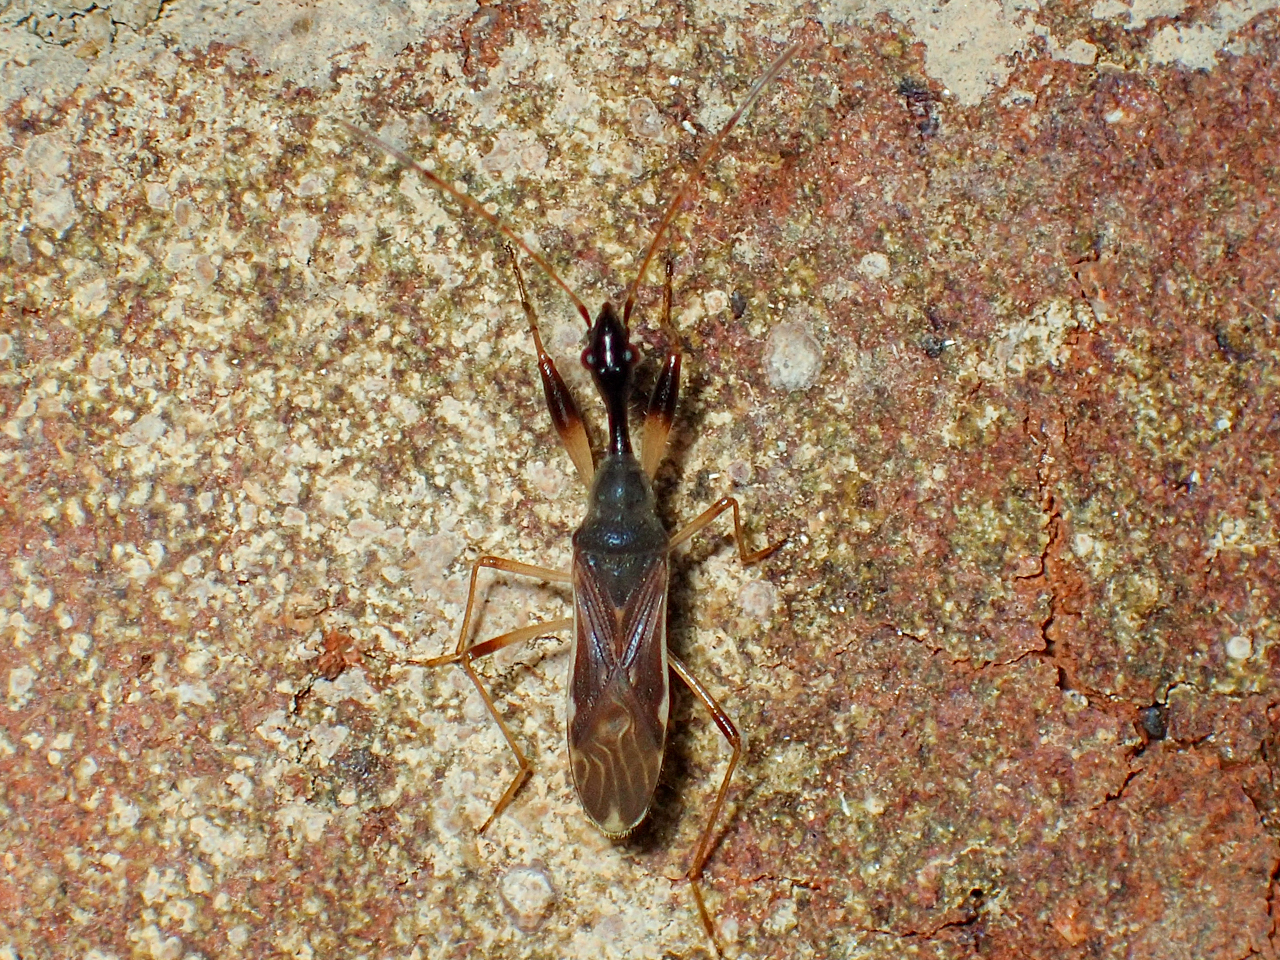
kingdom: Animalia
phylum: Arthropoda
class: Insecta
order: Hemiptera
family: Rhyparochromidae
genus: Myodocha
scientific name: Myodocha serripes
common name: Long-necked seed bug
